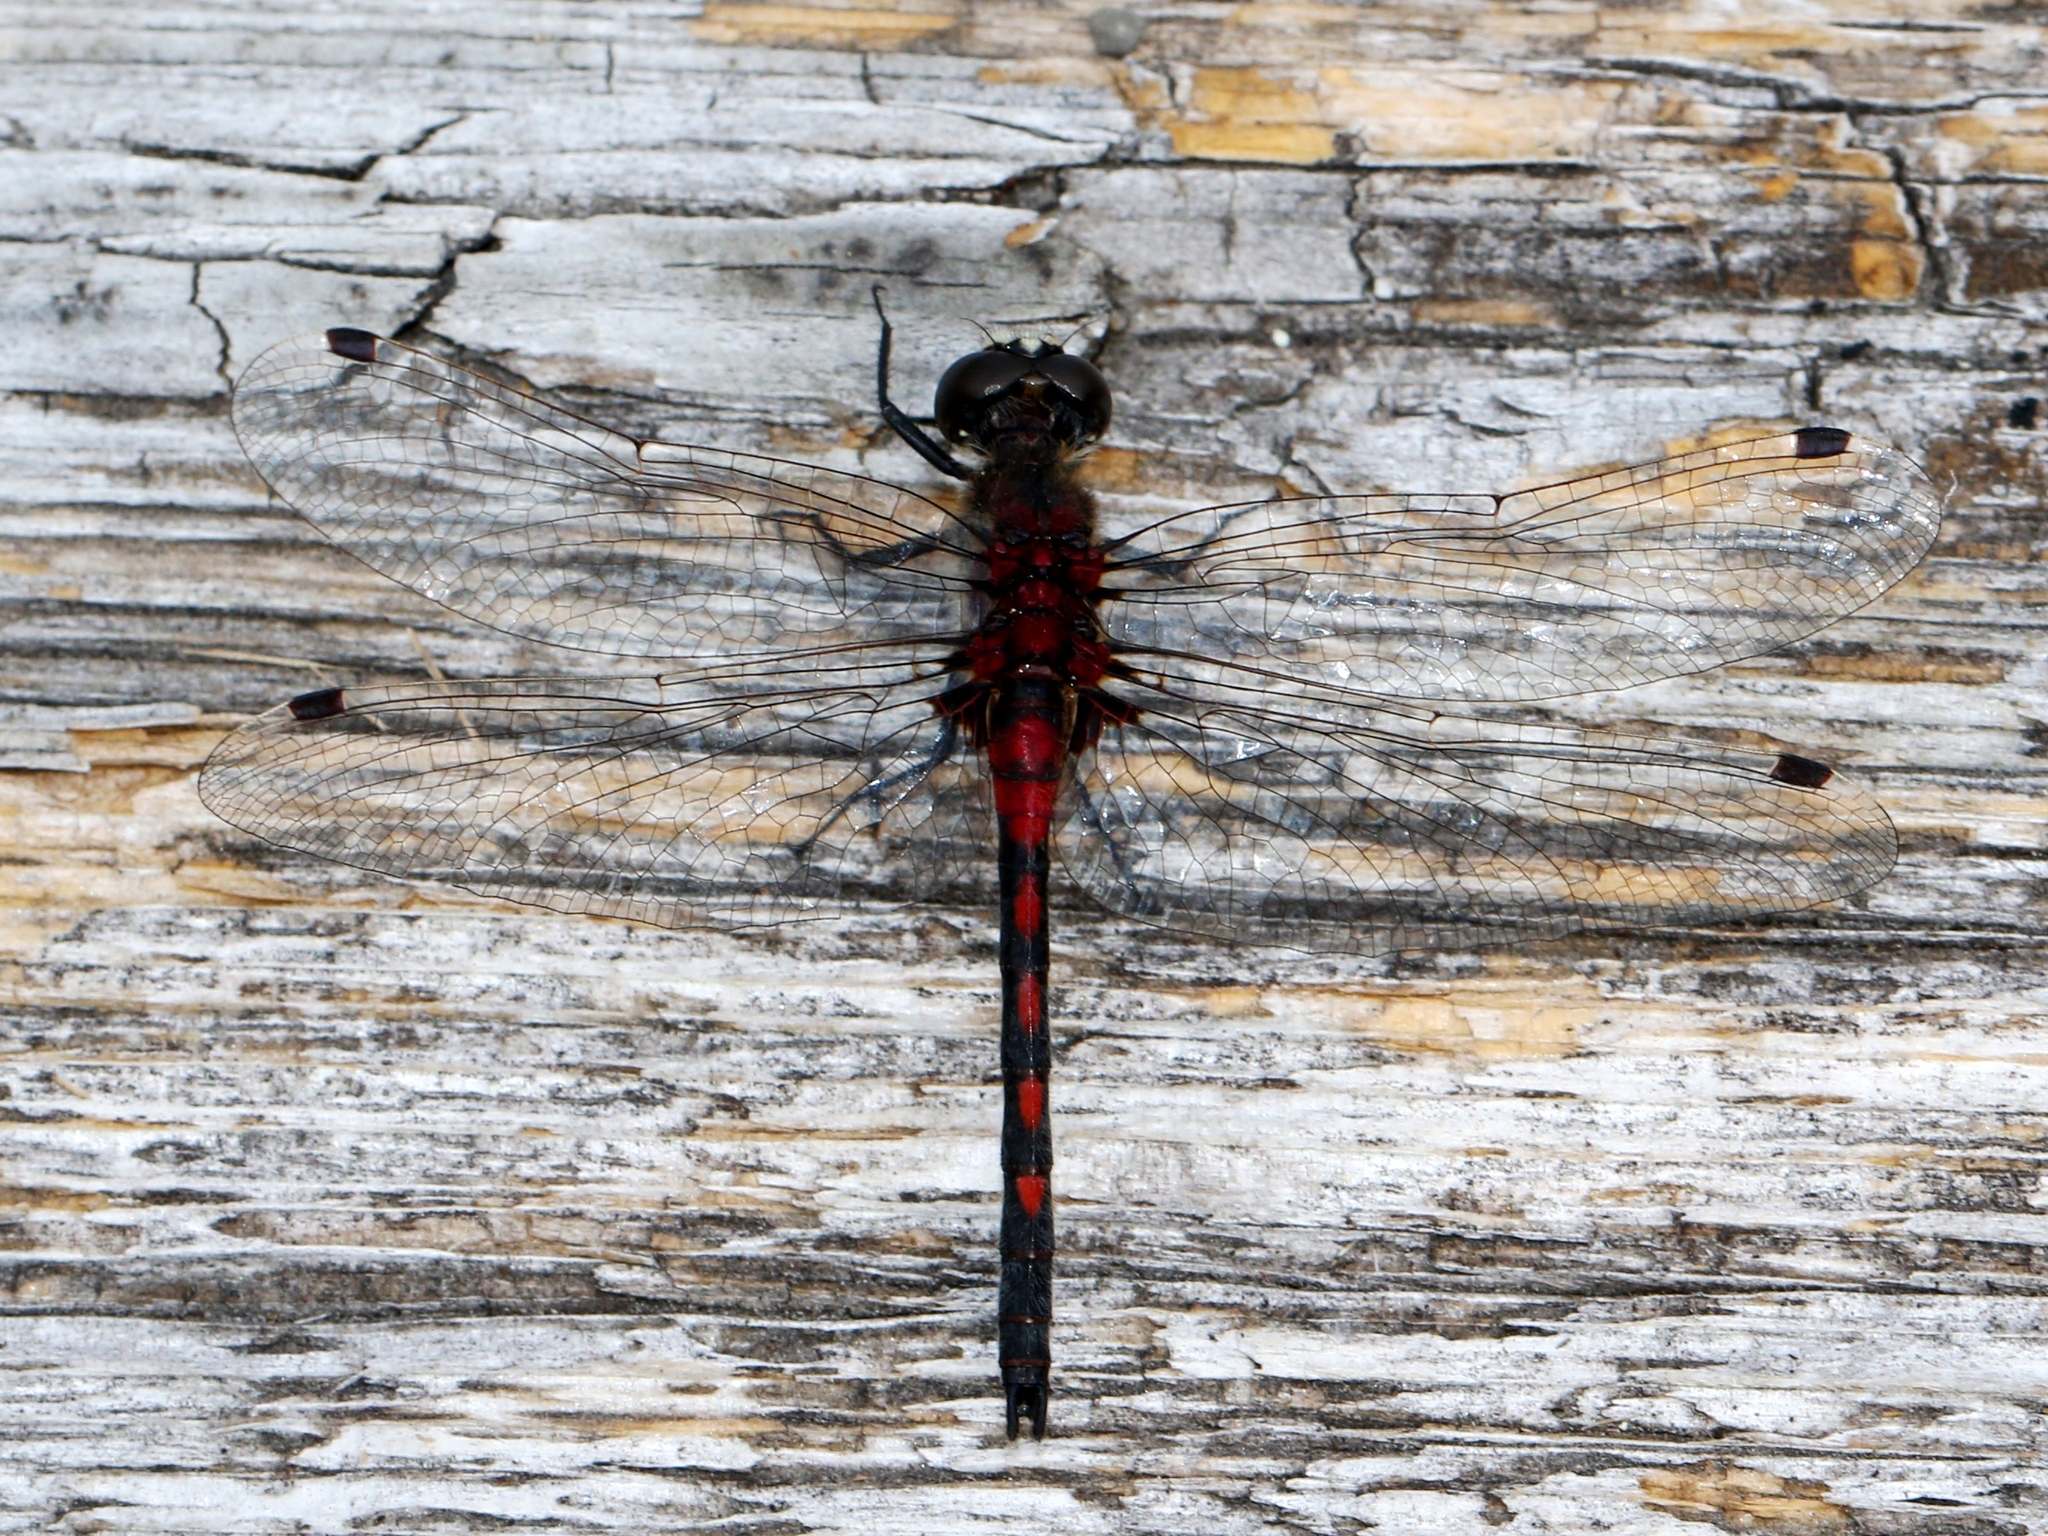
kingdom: Animalia
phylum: Arthropoda
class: Insecta
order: Odonata
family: Libellulidae
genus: Leucorrhinia
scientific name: Leucorrhinia hudsonica
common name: Hudsonian whiteface
